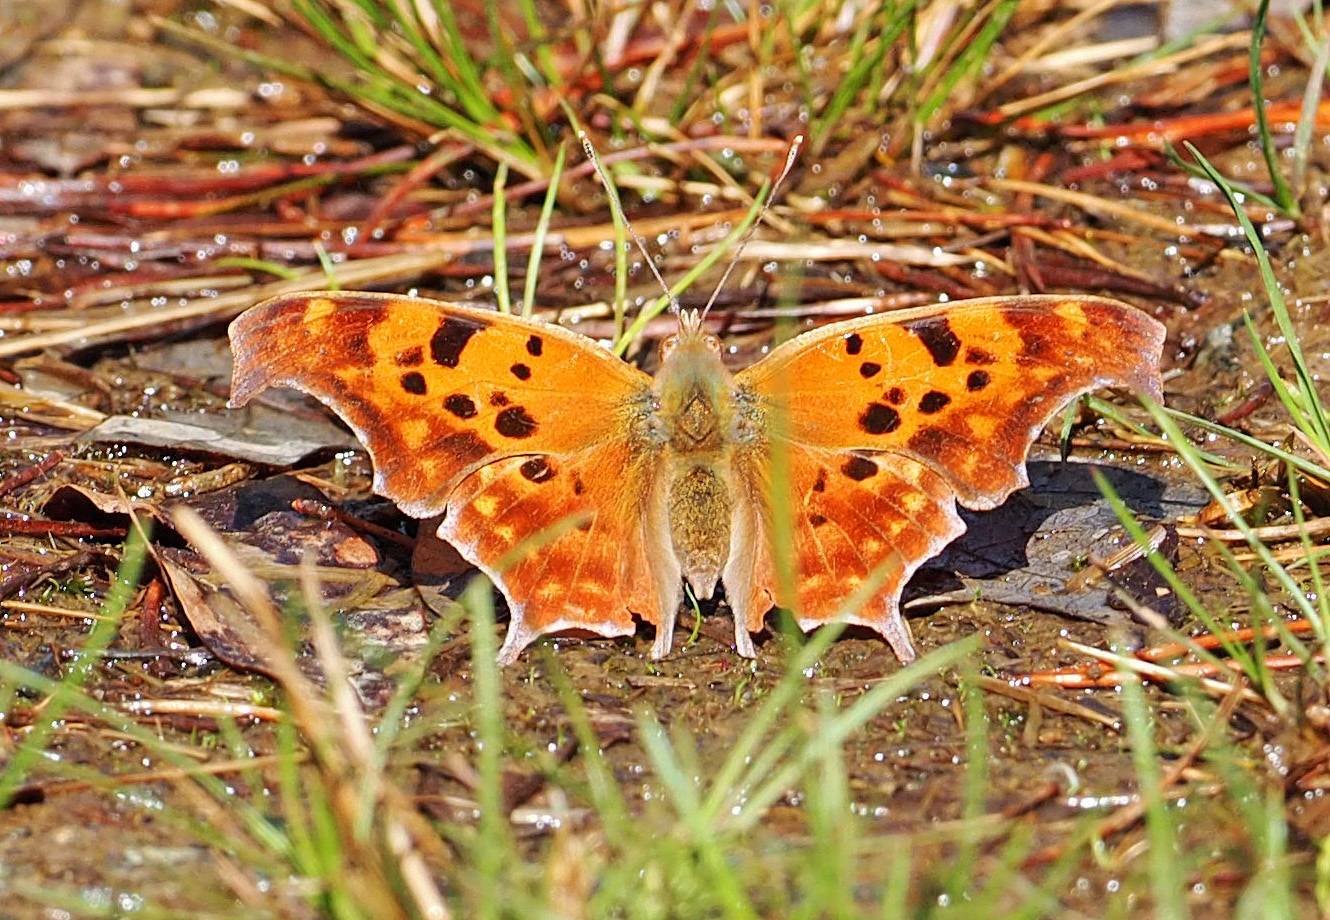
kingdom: Animalia
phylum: Arthropoda
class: Insecta
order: Lepidoptera
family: Nymphalidae
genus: Polygonia
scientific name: Polygonia interrogationis
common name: Question mark
